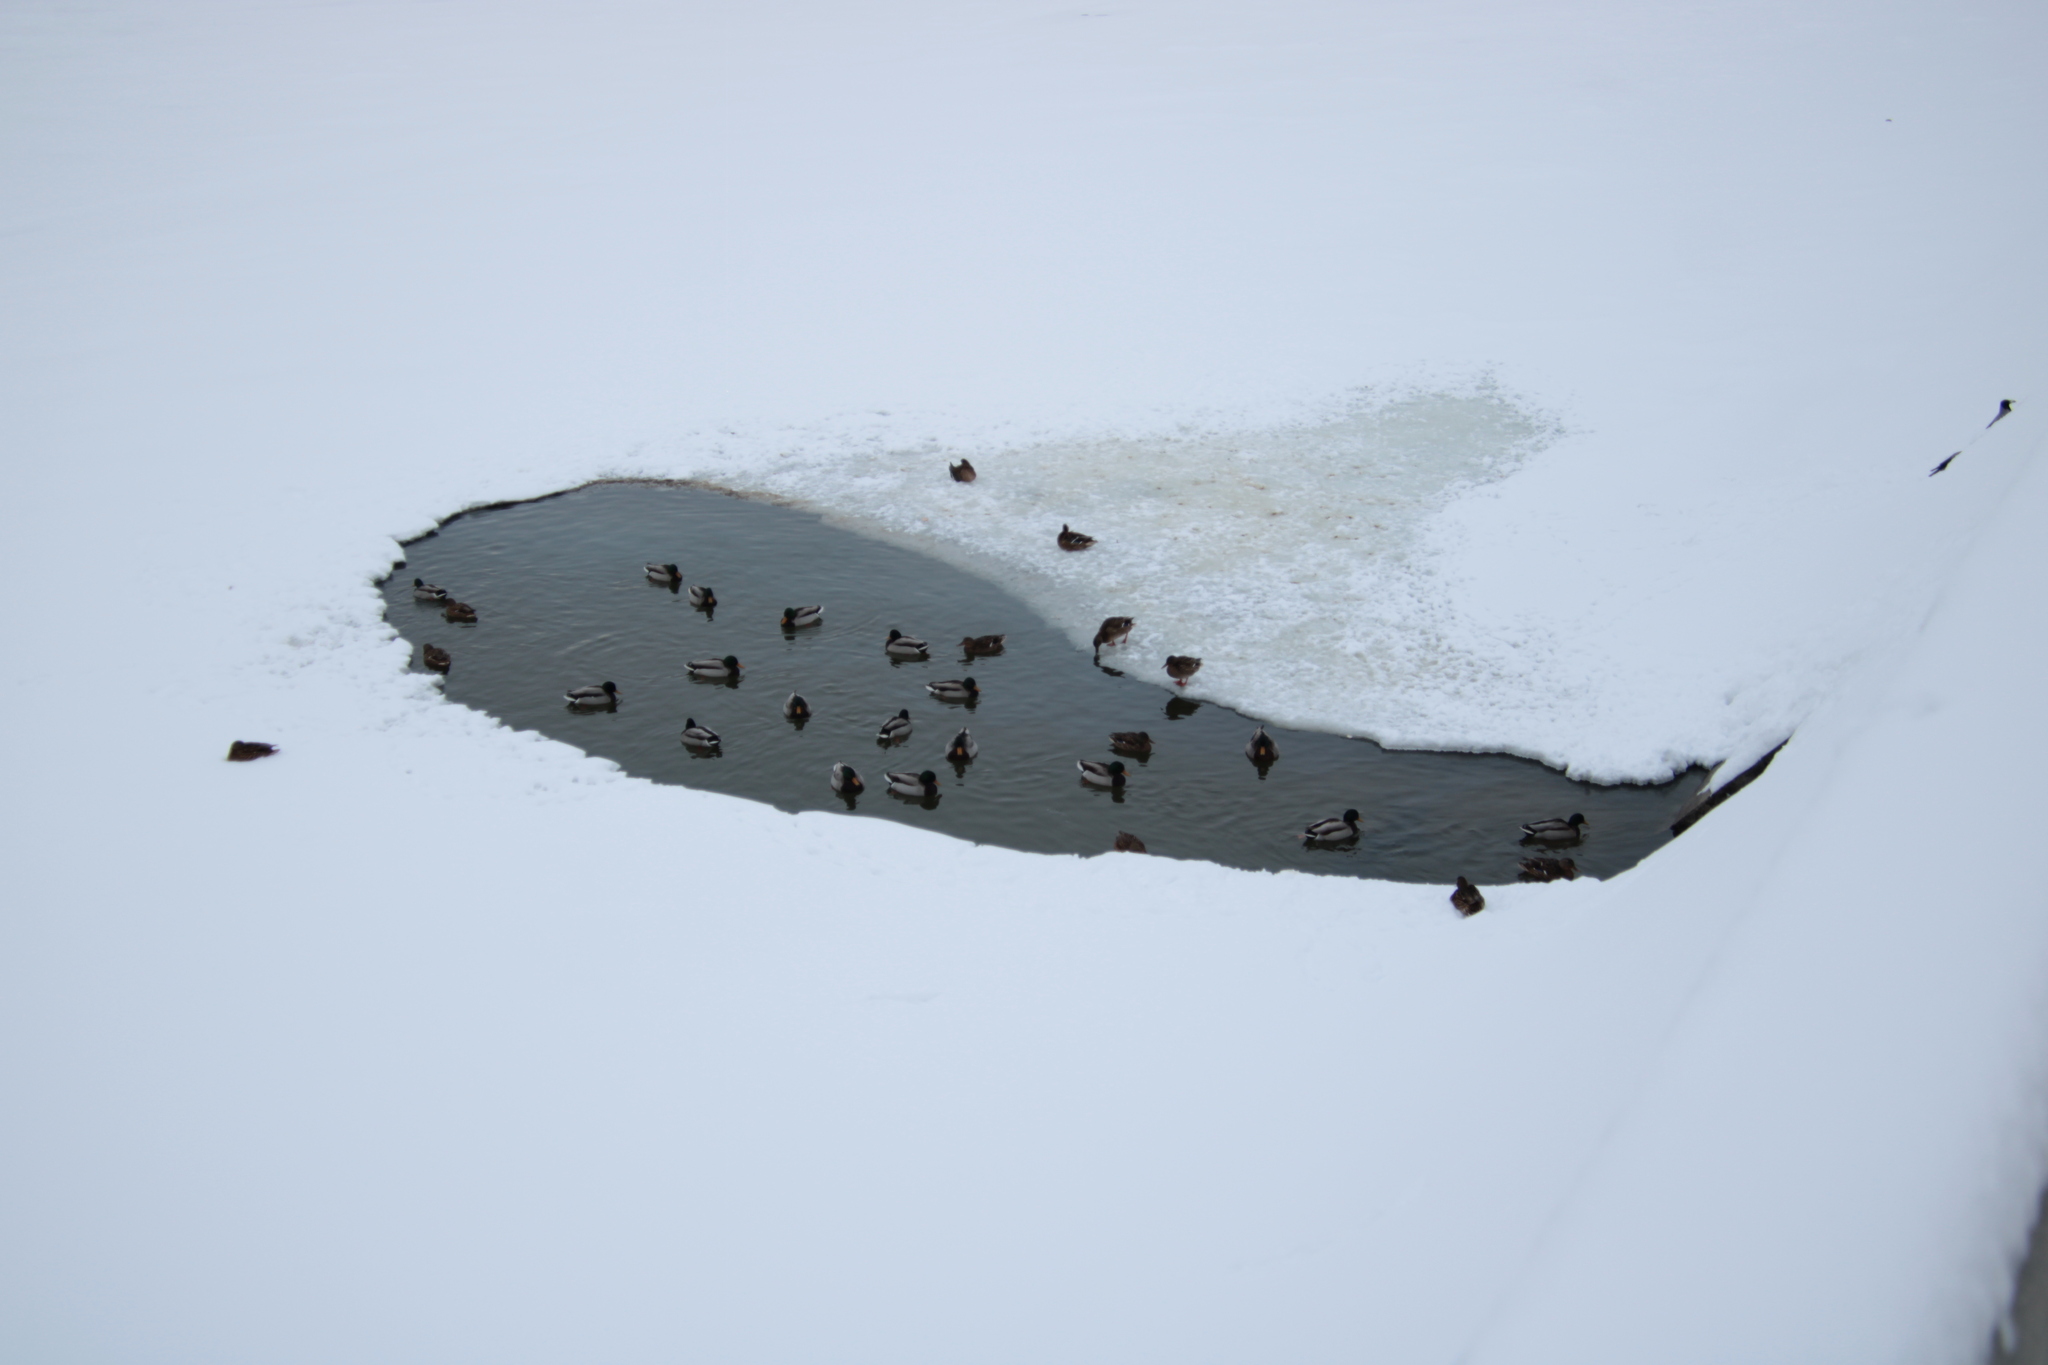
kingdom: Animalia
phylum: Chordata
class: Aves
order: Anseriformes
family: Anatidae
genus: Anas
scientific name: Anas platyrhynchos
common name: Mallard
